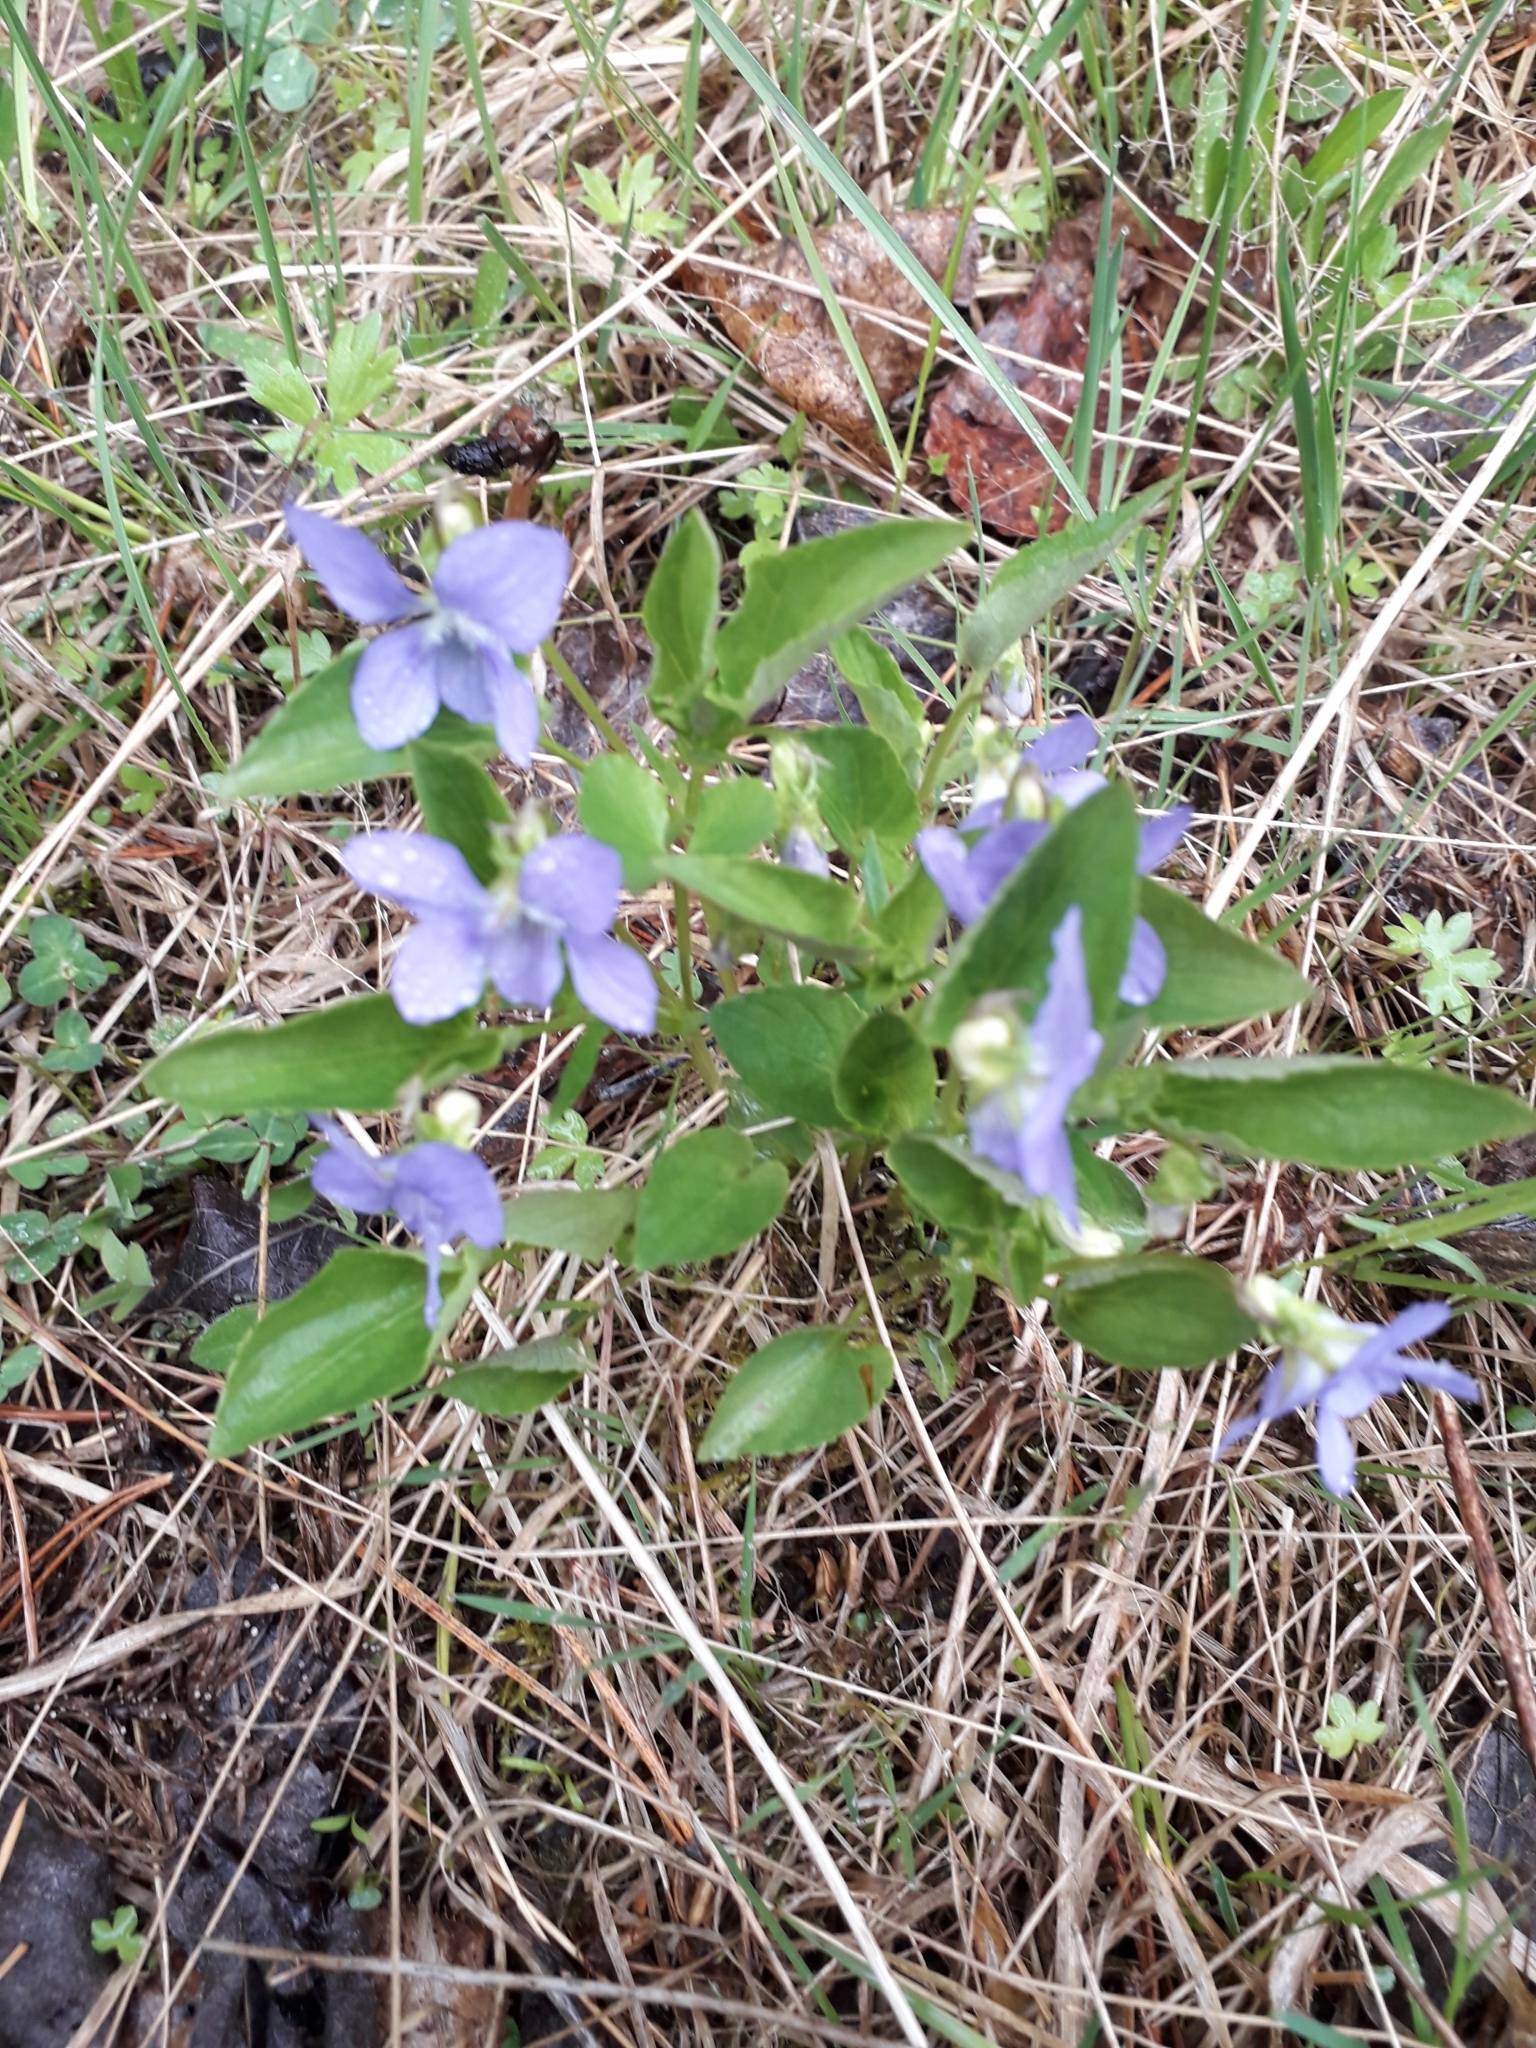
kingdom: Plantae
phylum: Tracheophyta
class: Magnoliopsida
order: Malpighiales
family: Violaceae
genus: Viola
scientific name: Viola canina
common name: Heath dog-violet
